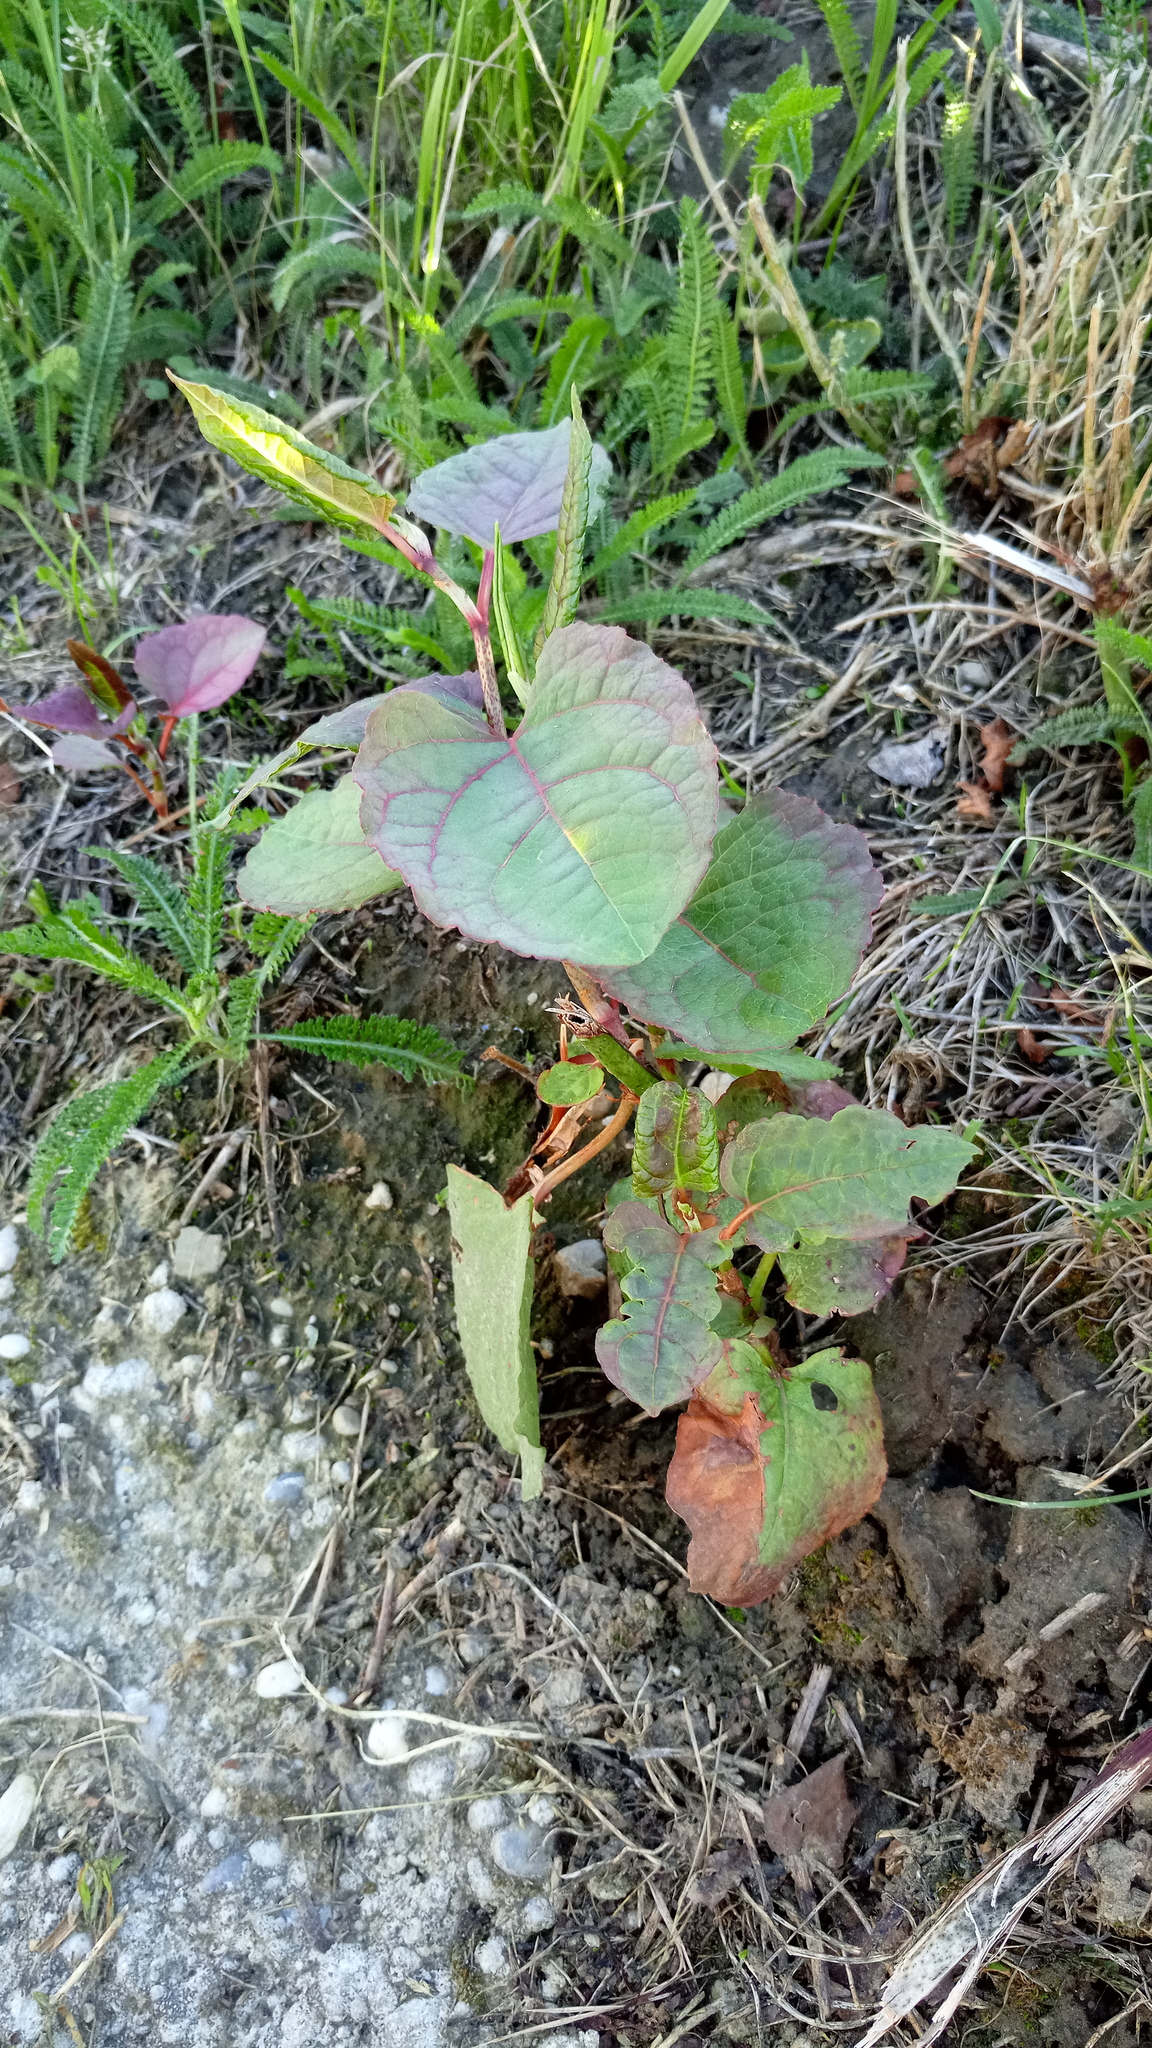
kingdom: Plantae
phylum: Tracheophyta
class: Magnoliopsida
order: Caryophyllales
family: Polygonaceae
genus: Reynoutria
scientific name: Reynoutria bohemica
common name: Bohemian knotweed
